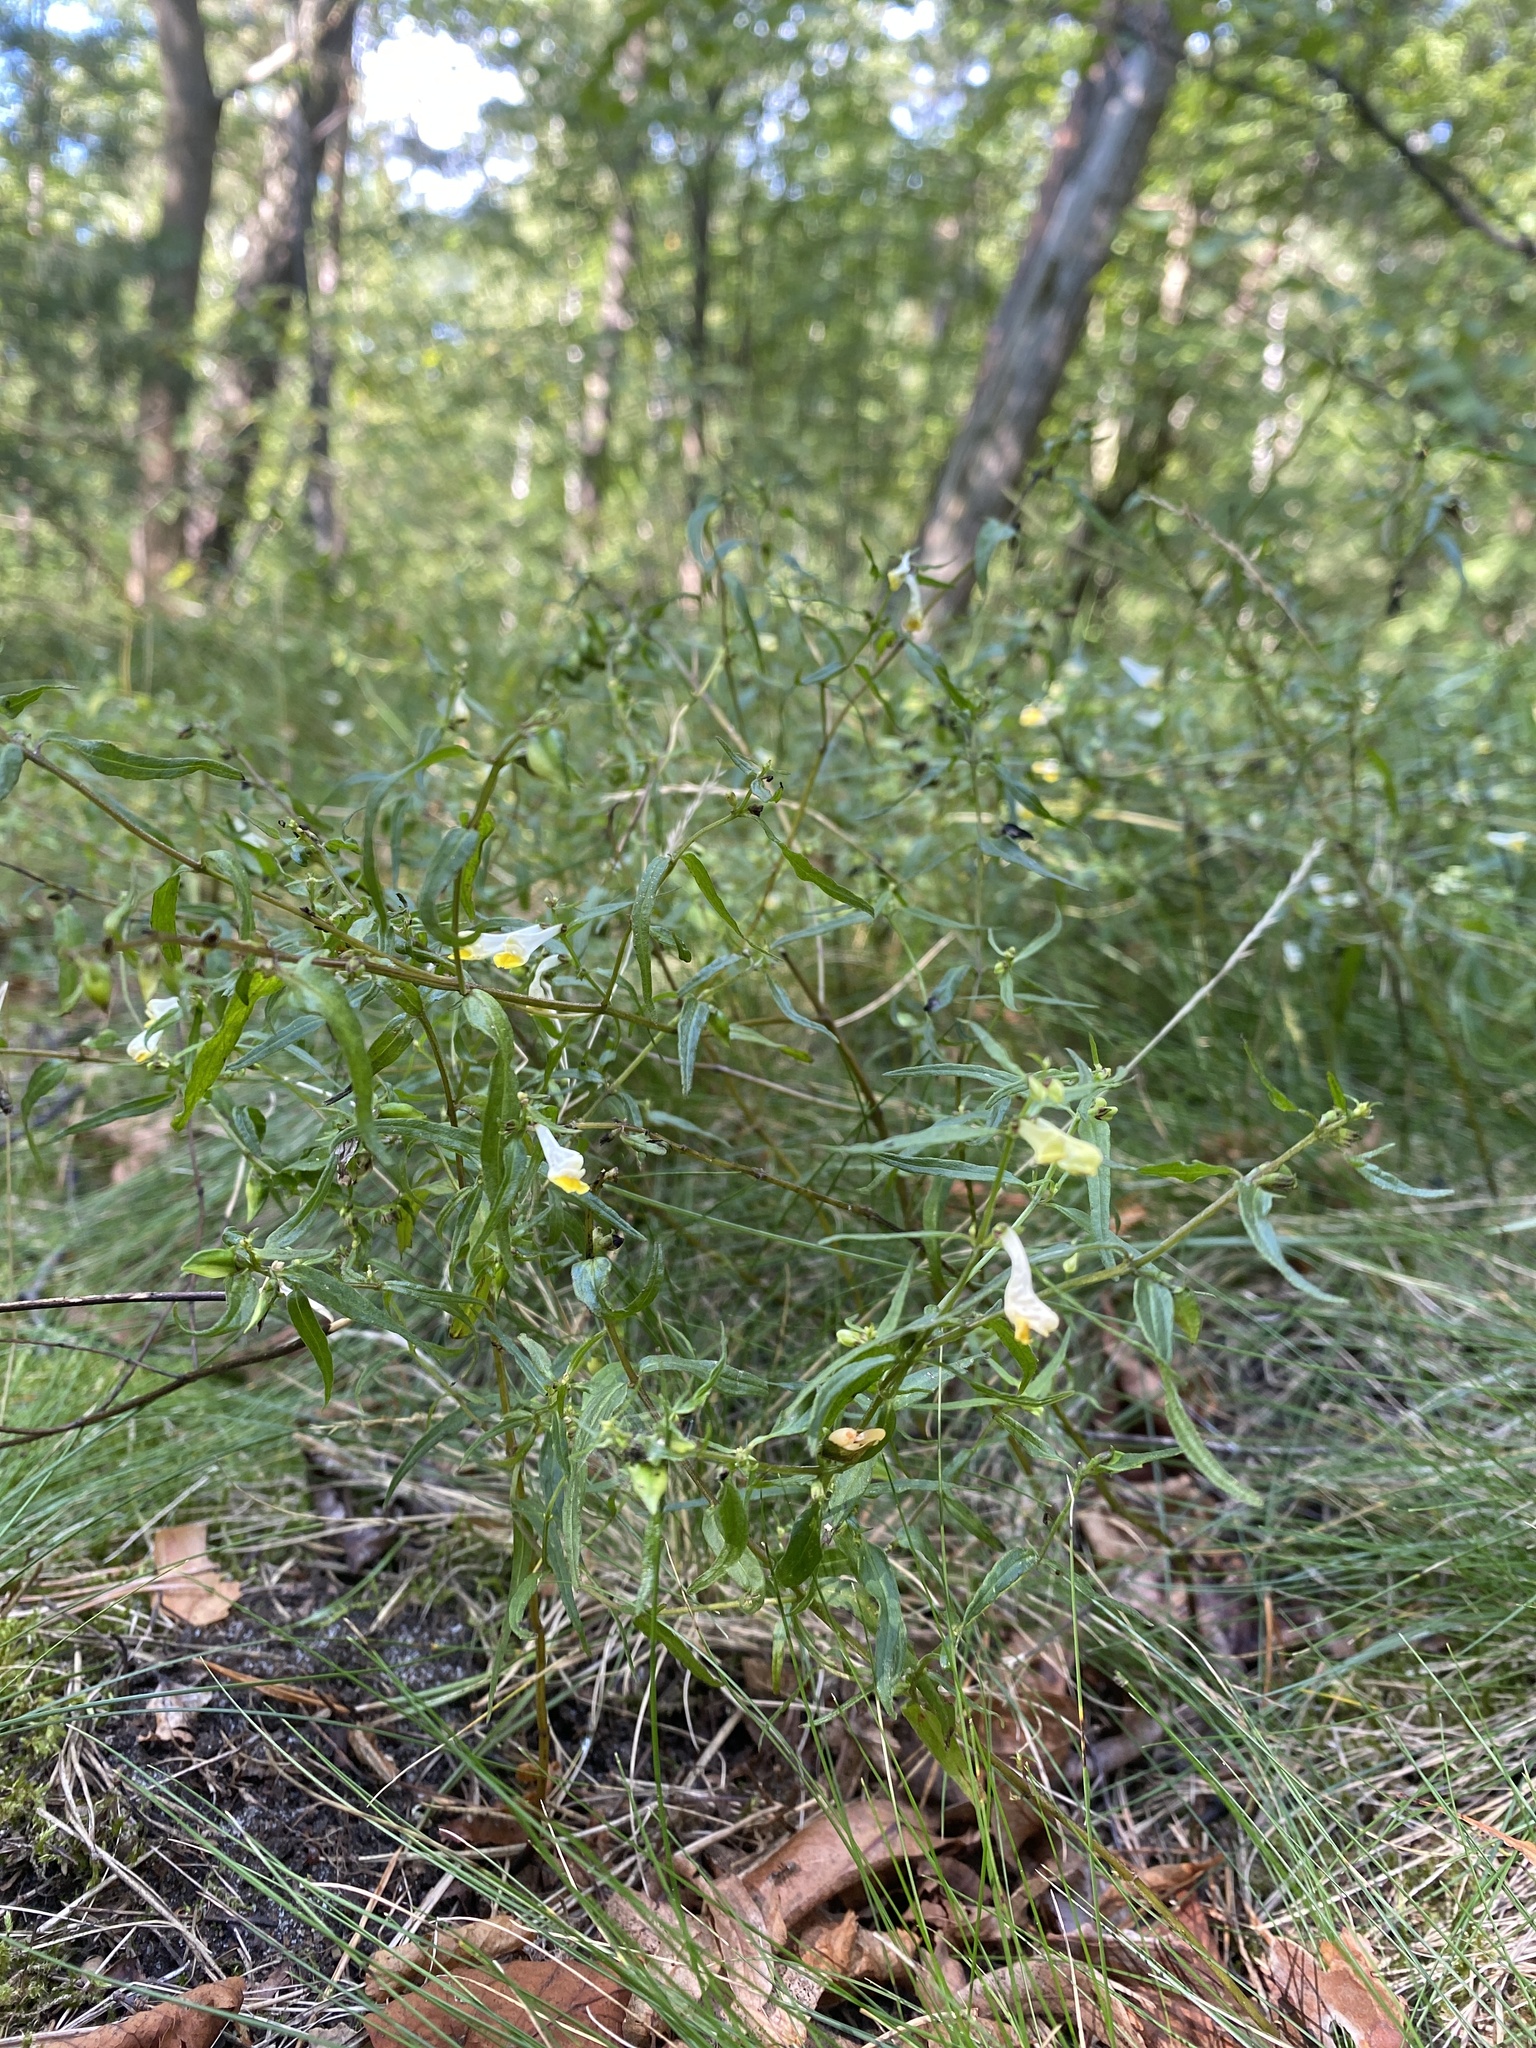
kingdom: Plantae
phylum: Tracheophyta
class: Magnoliopsida
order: Lamiales
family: Orobanchaceae
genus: Melampyrum
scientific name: Melampyrum pratense
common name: Common cow-wheat
